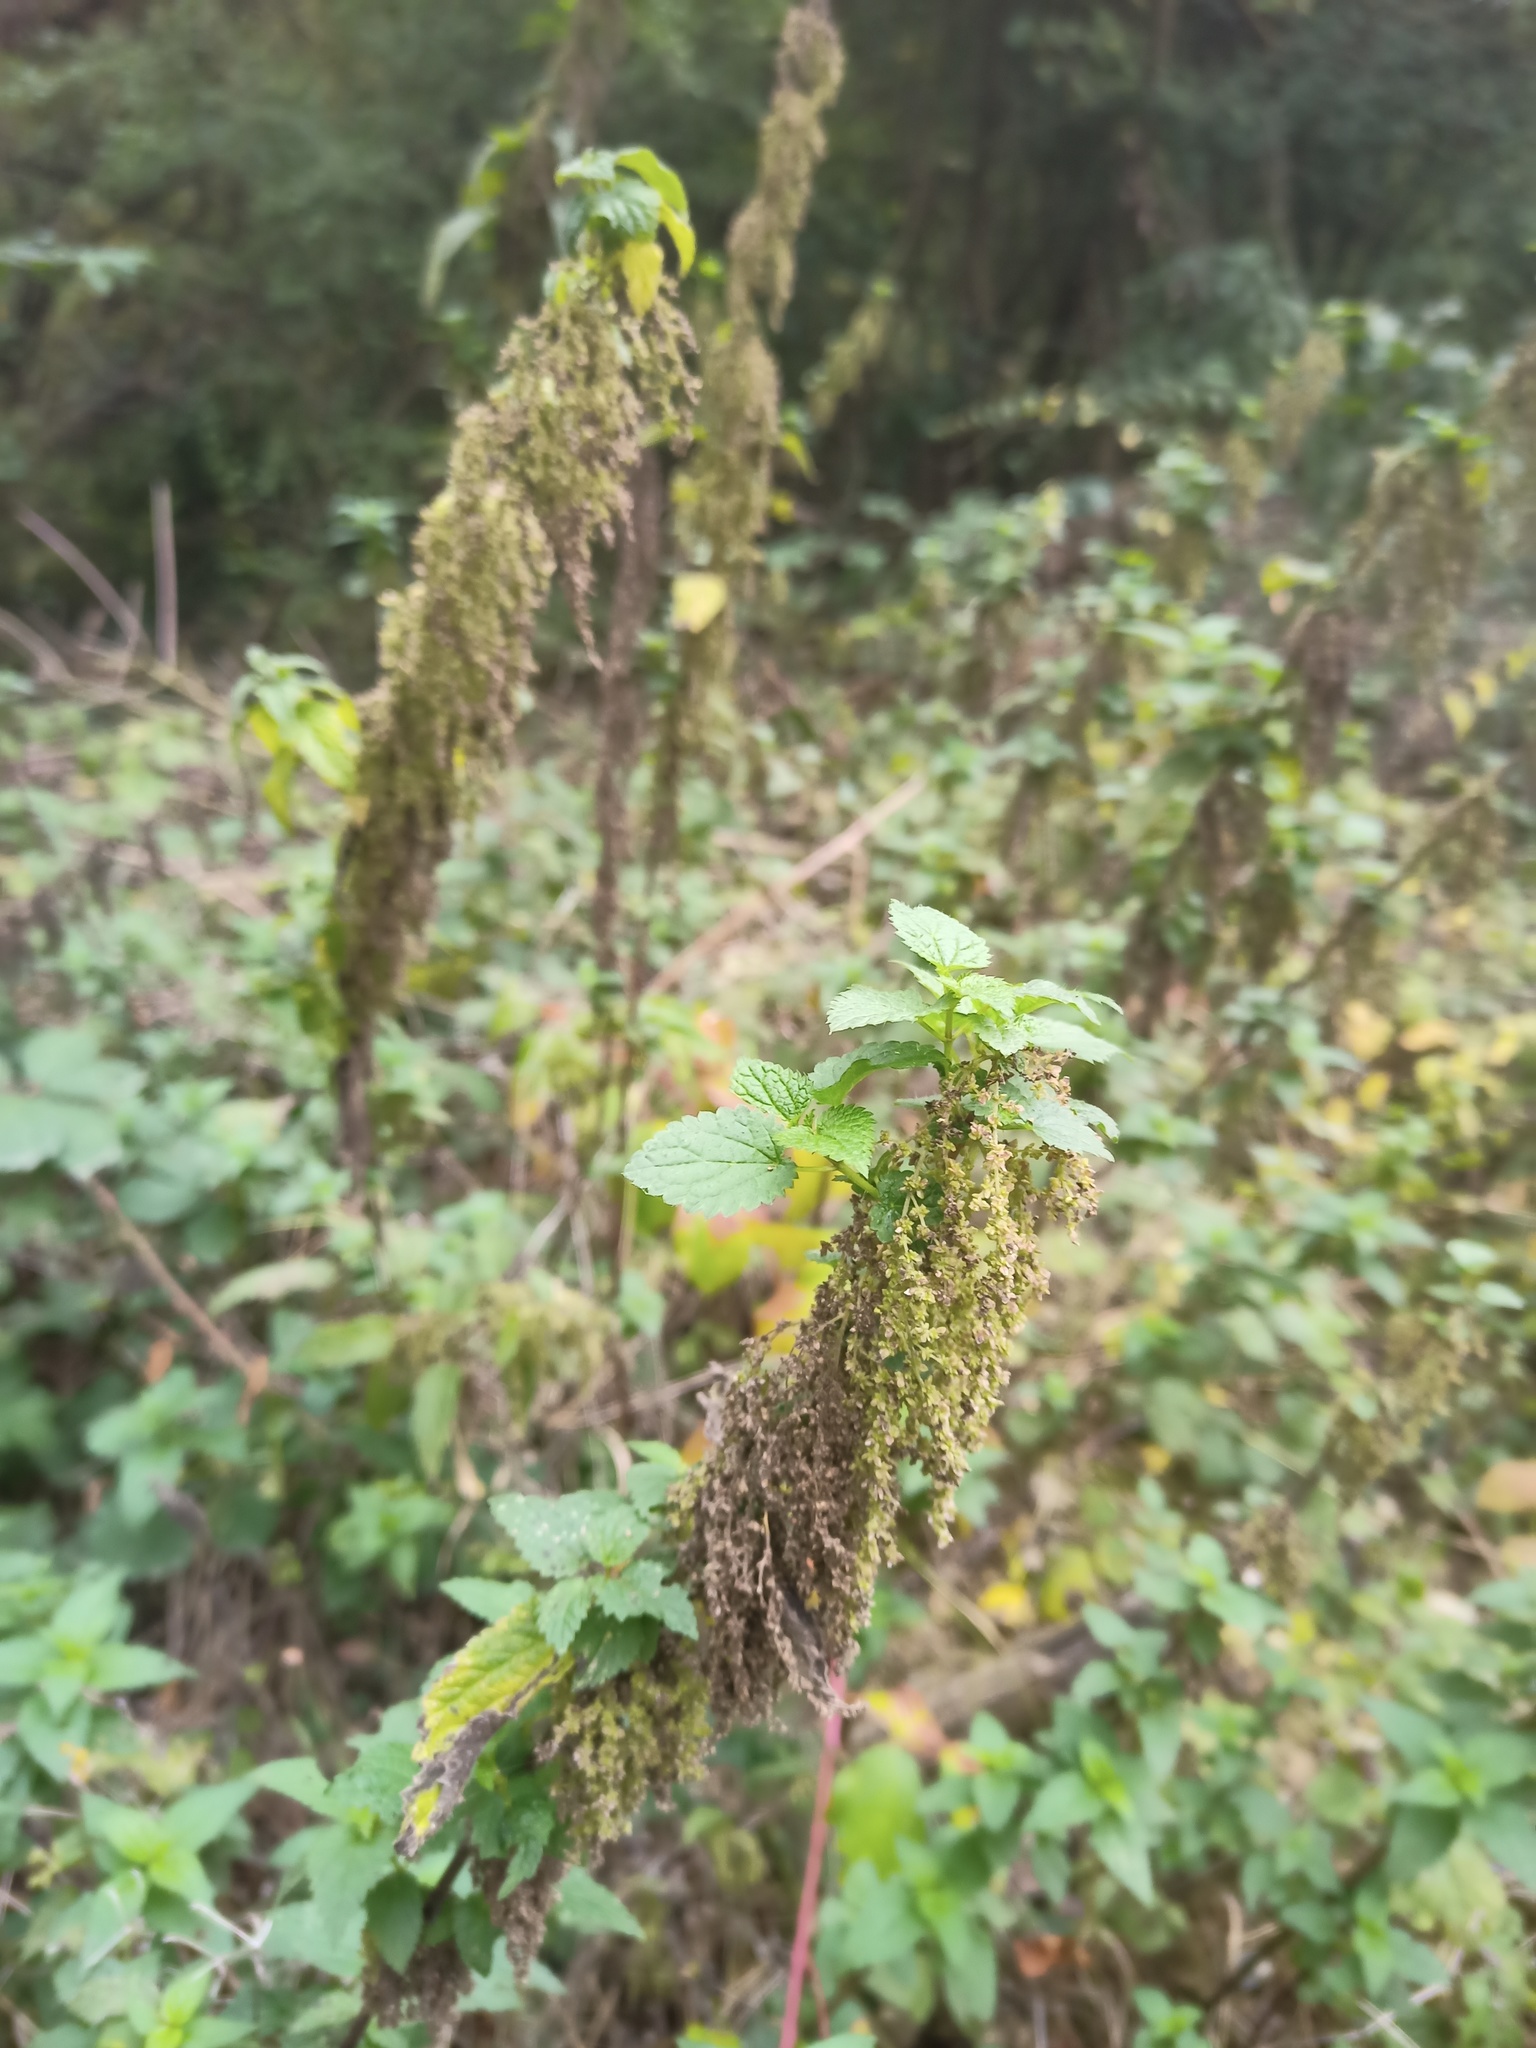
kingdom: Plantae
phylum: Tracheophyta
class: Magnoliopsida
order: Rosales
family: Urticaceae
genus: Urtica
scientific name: Urtica dioica
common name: Common nettle
